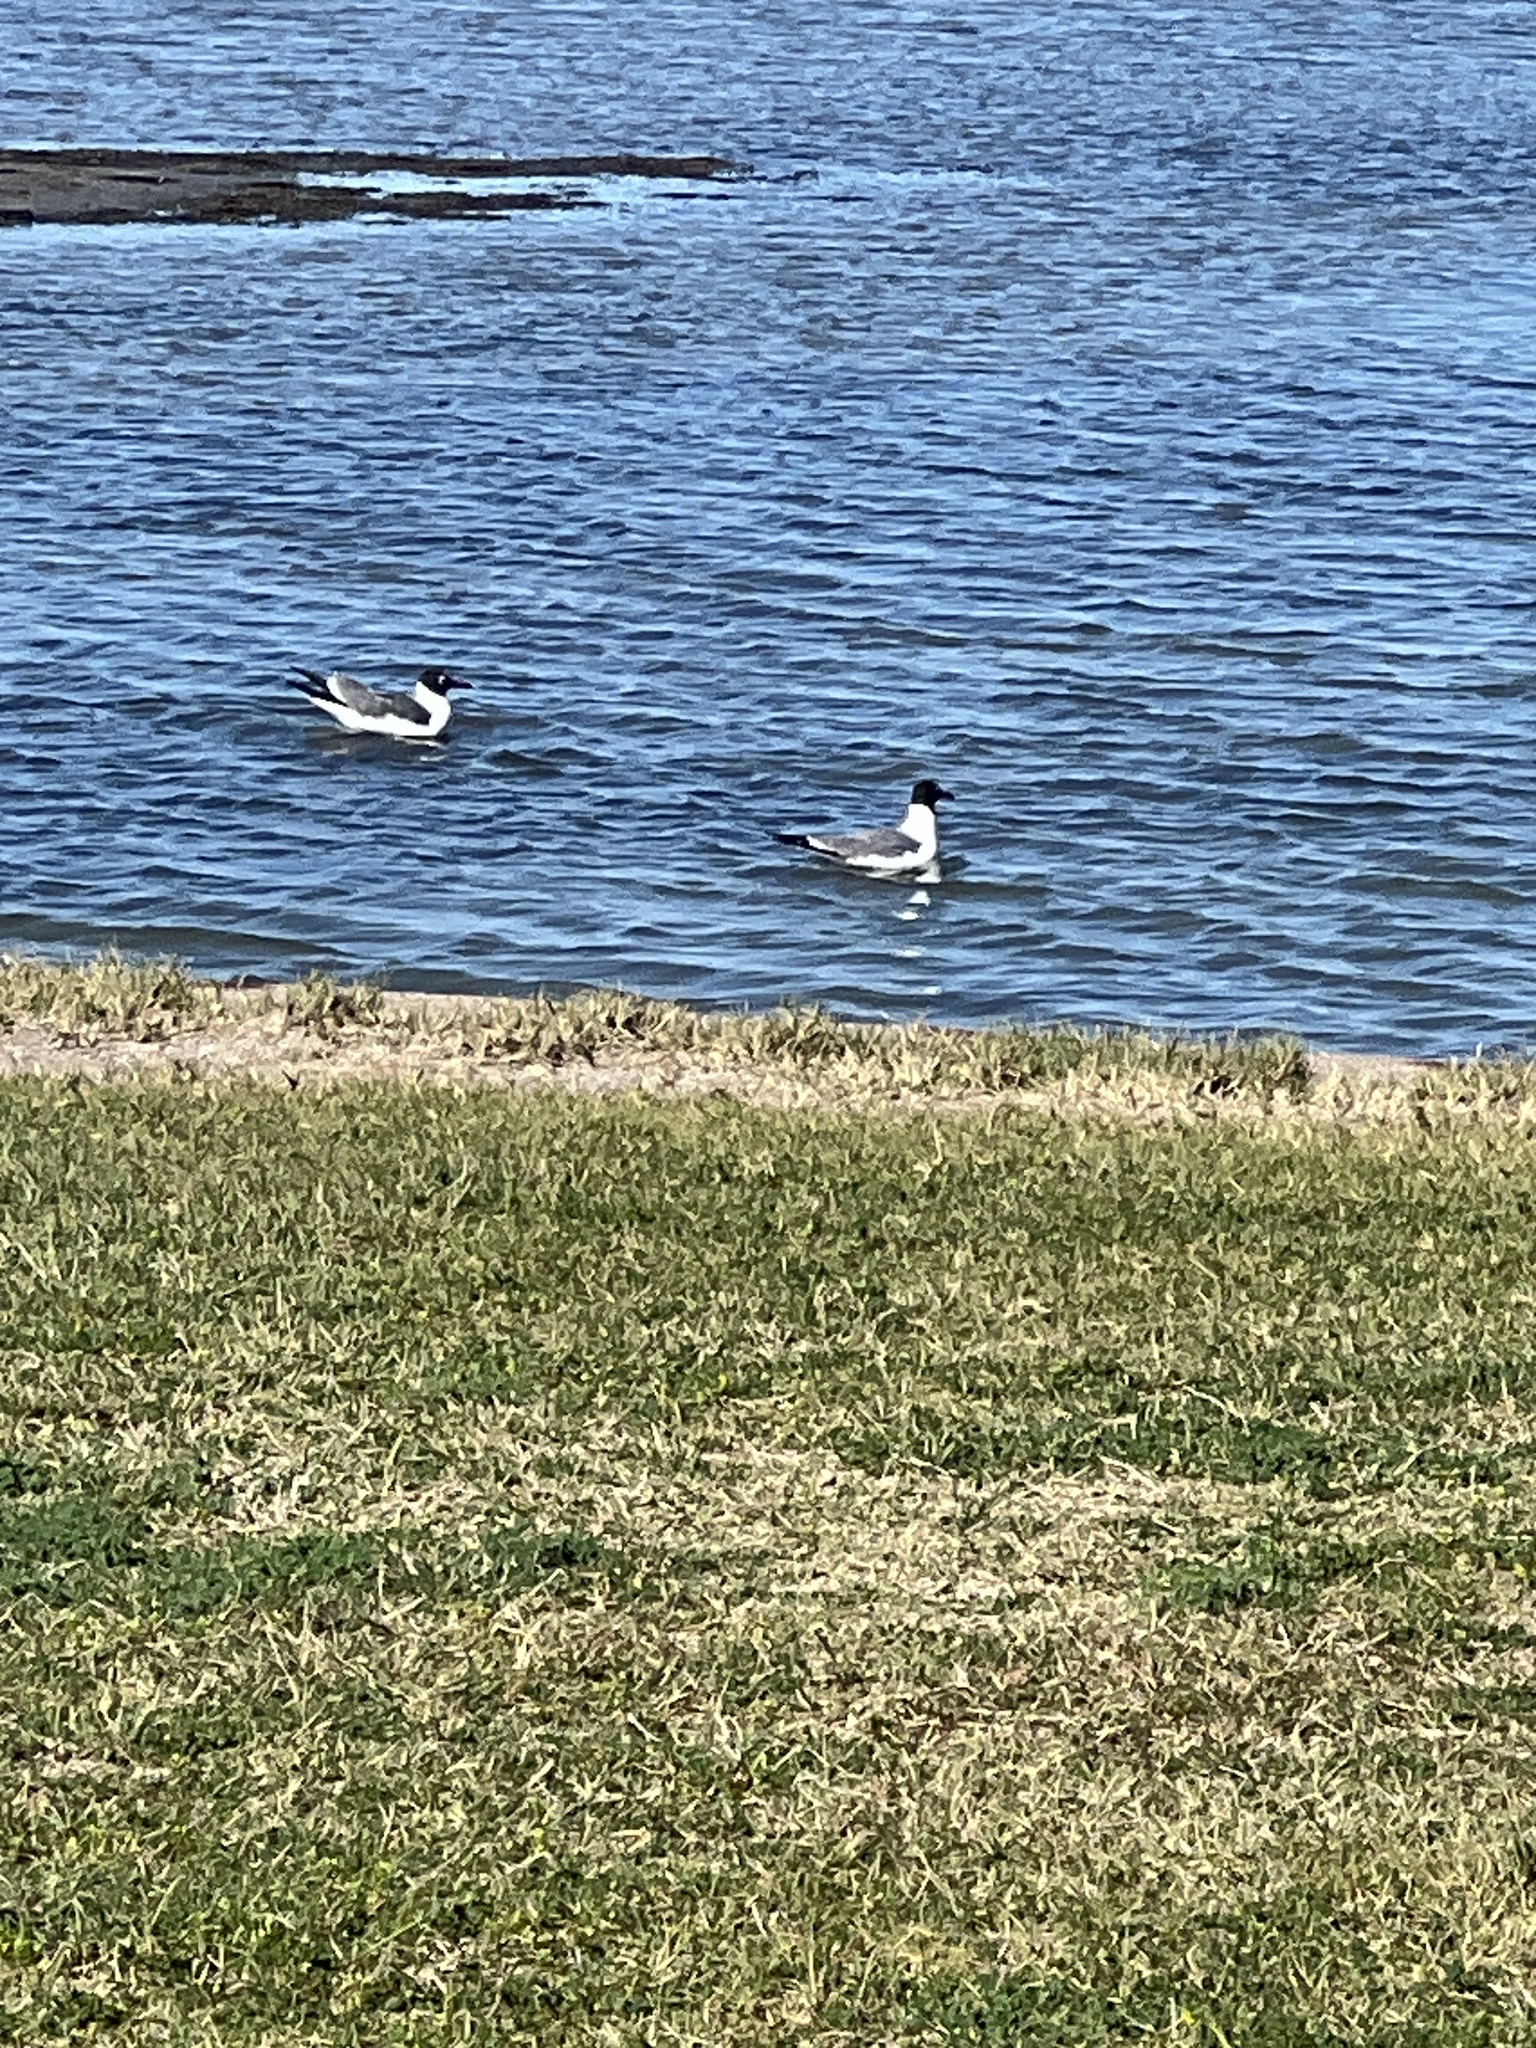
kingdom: Animalia
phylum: Chordata
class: Aves
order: Charadriiformes
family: Laridae
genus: Leucophaeus
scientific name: Leucophaeus atricilla
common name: Laughing gull
